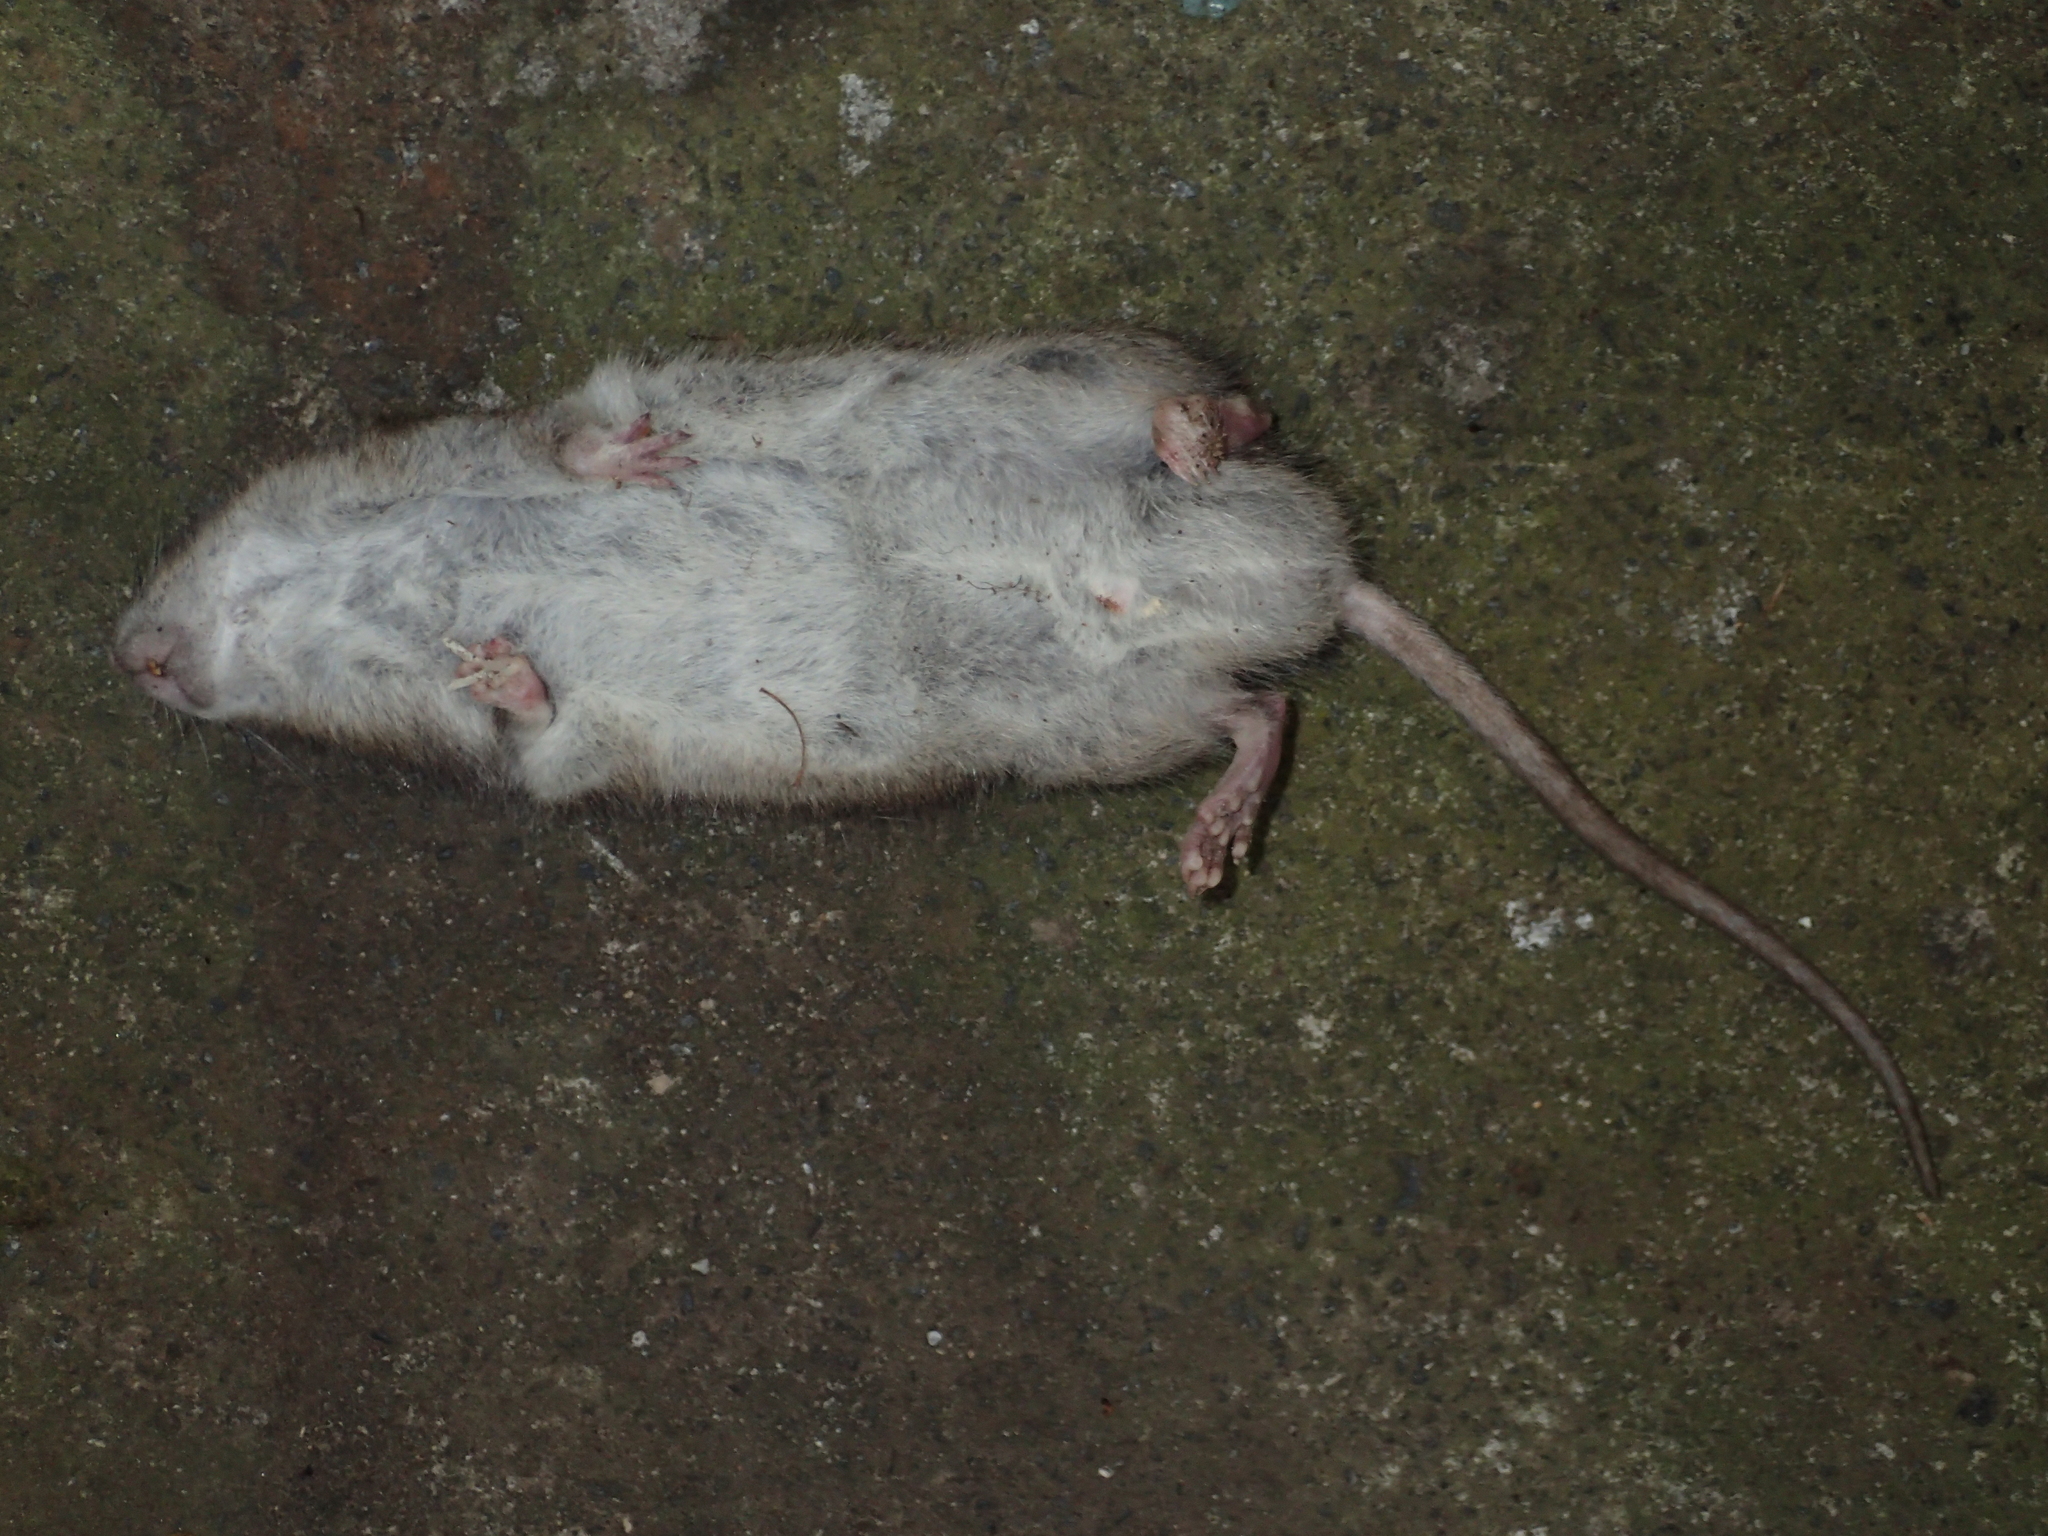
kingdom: Animalia
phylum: Chordata
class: Mammalia
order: Rodentia
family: Muridae
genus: Rattus
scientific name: Rattus norvegicus
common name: Brown rat
